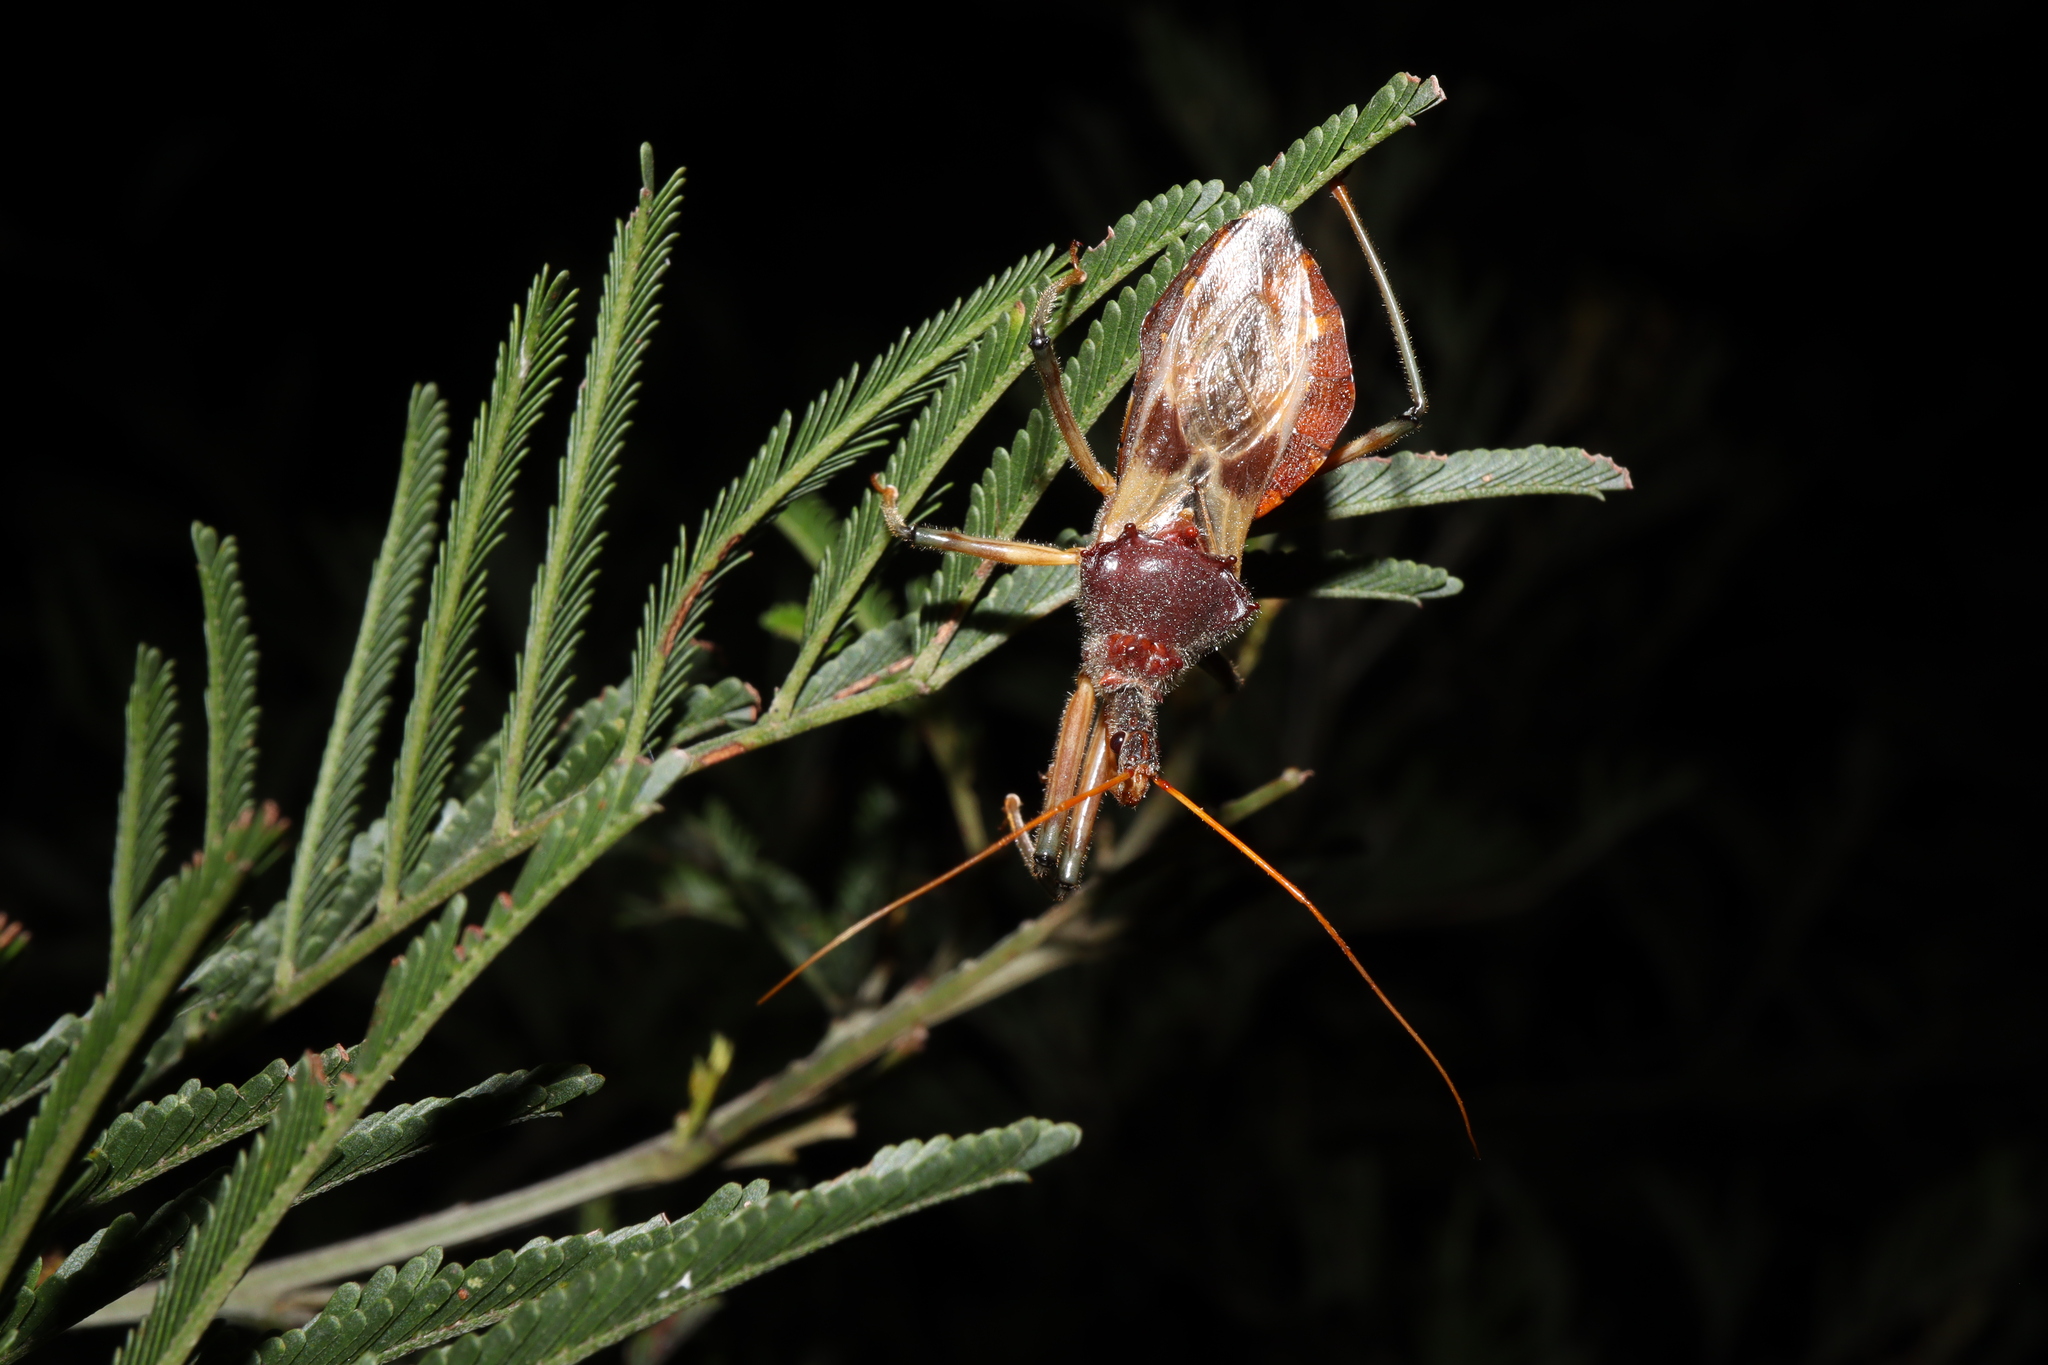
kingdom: Animalia
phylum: Arthropoda
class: Insecta
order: Hemiptera
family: Reduviidae
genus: Pristhesancus
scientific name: Pristhesancus plagipennis
